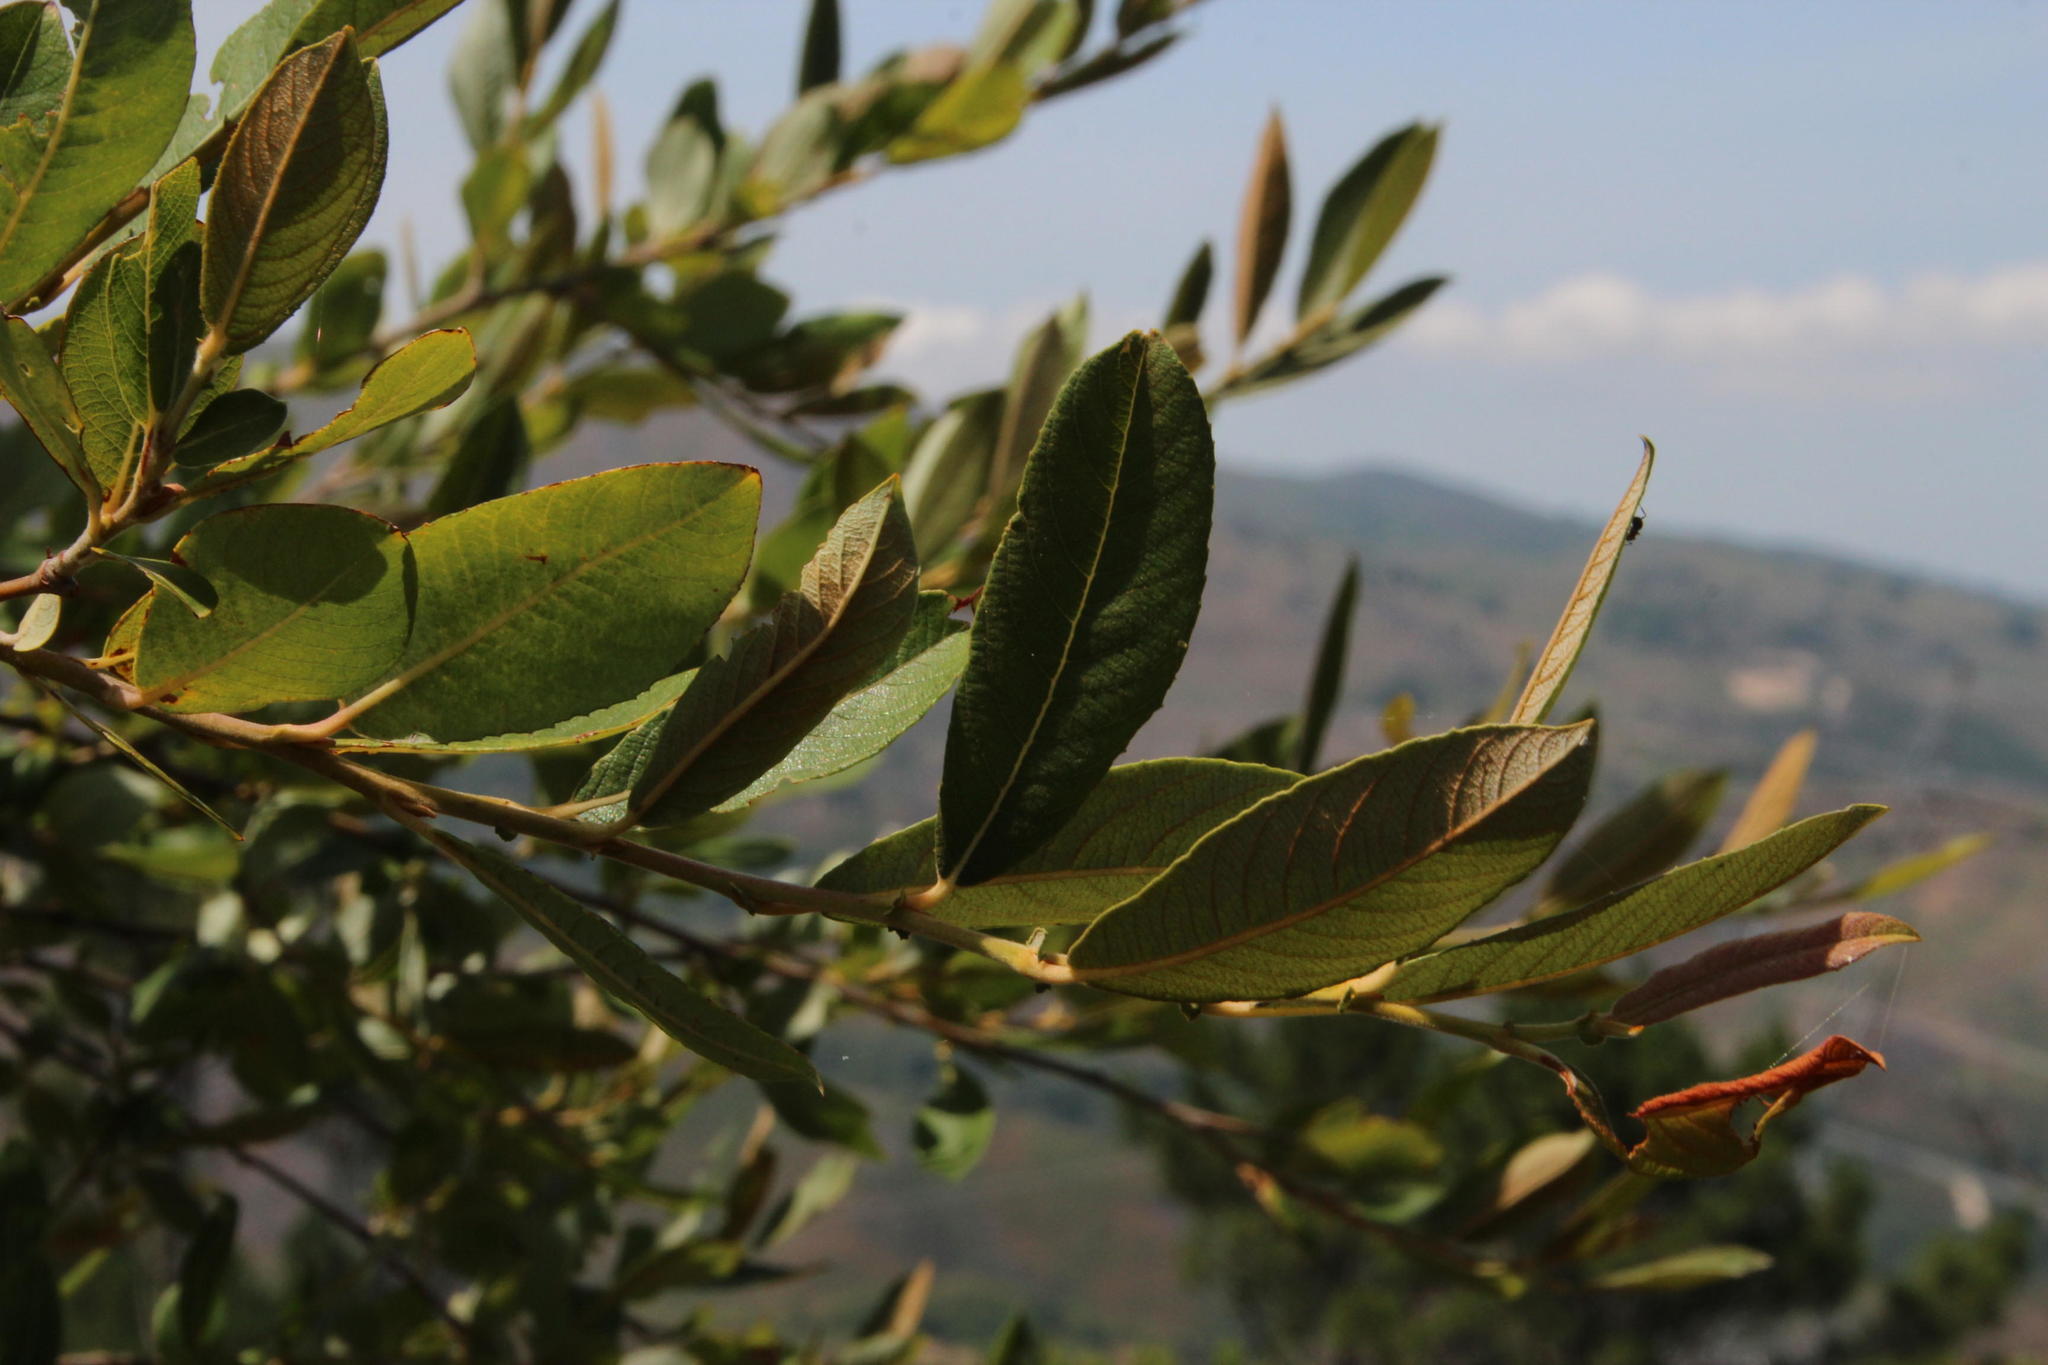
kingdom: Plantae
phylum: Tracheophyta
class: Magnoliopsida
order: Malpighiales
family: Salicaceae
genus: Salix
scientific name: Salix atrocinerea
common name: Rusty willow
